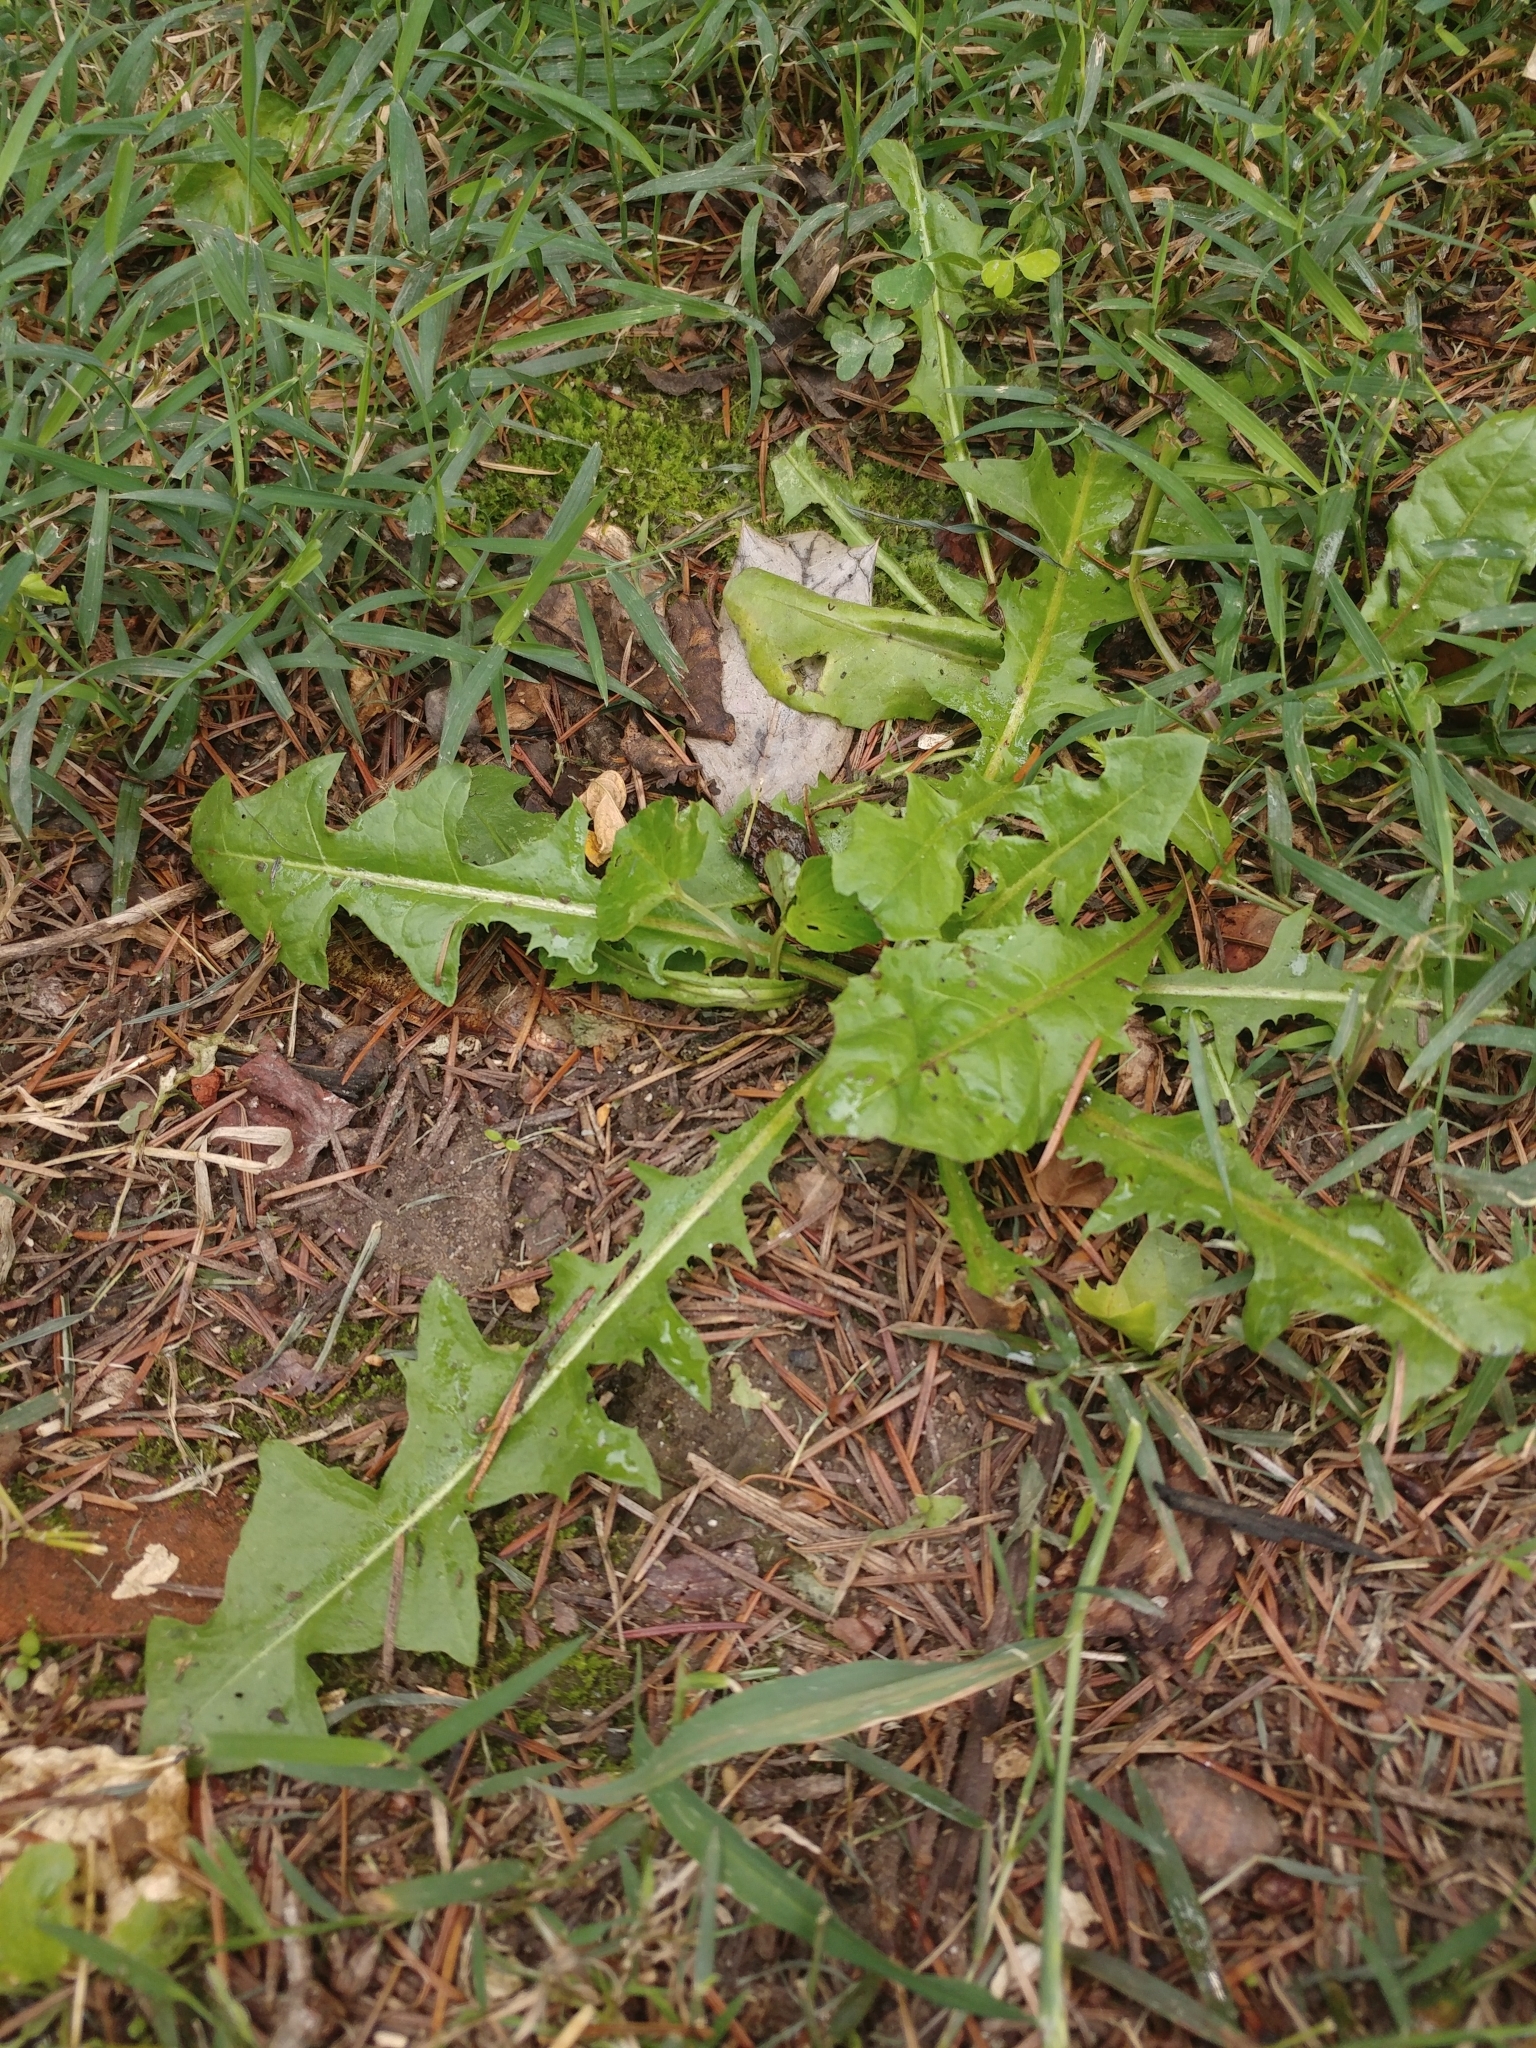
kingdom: Plantae
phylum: Tracheophyta
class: Magnoliopsida
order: Asterales
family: Asteraceae
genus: Taraxacum
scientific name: Taraxacum officinale
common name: Common dandelion
